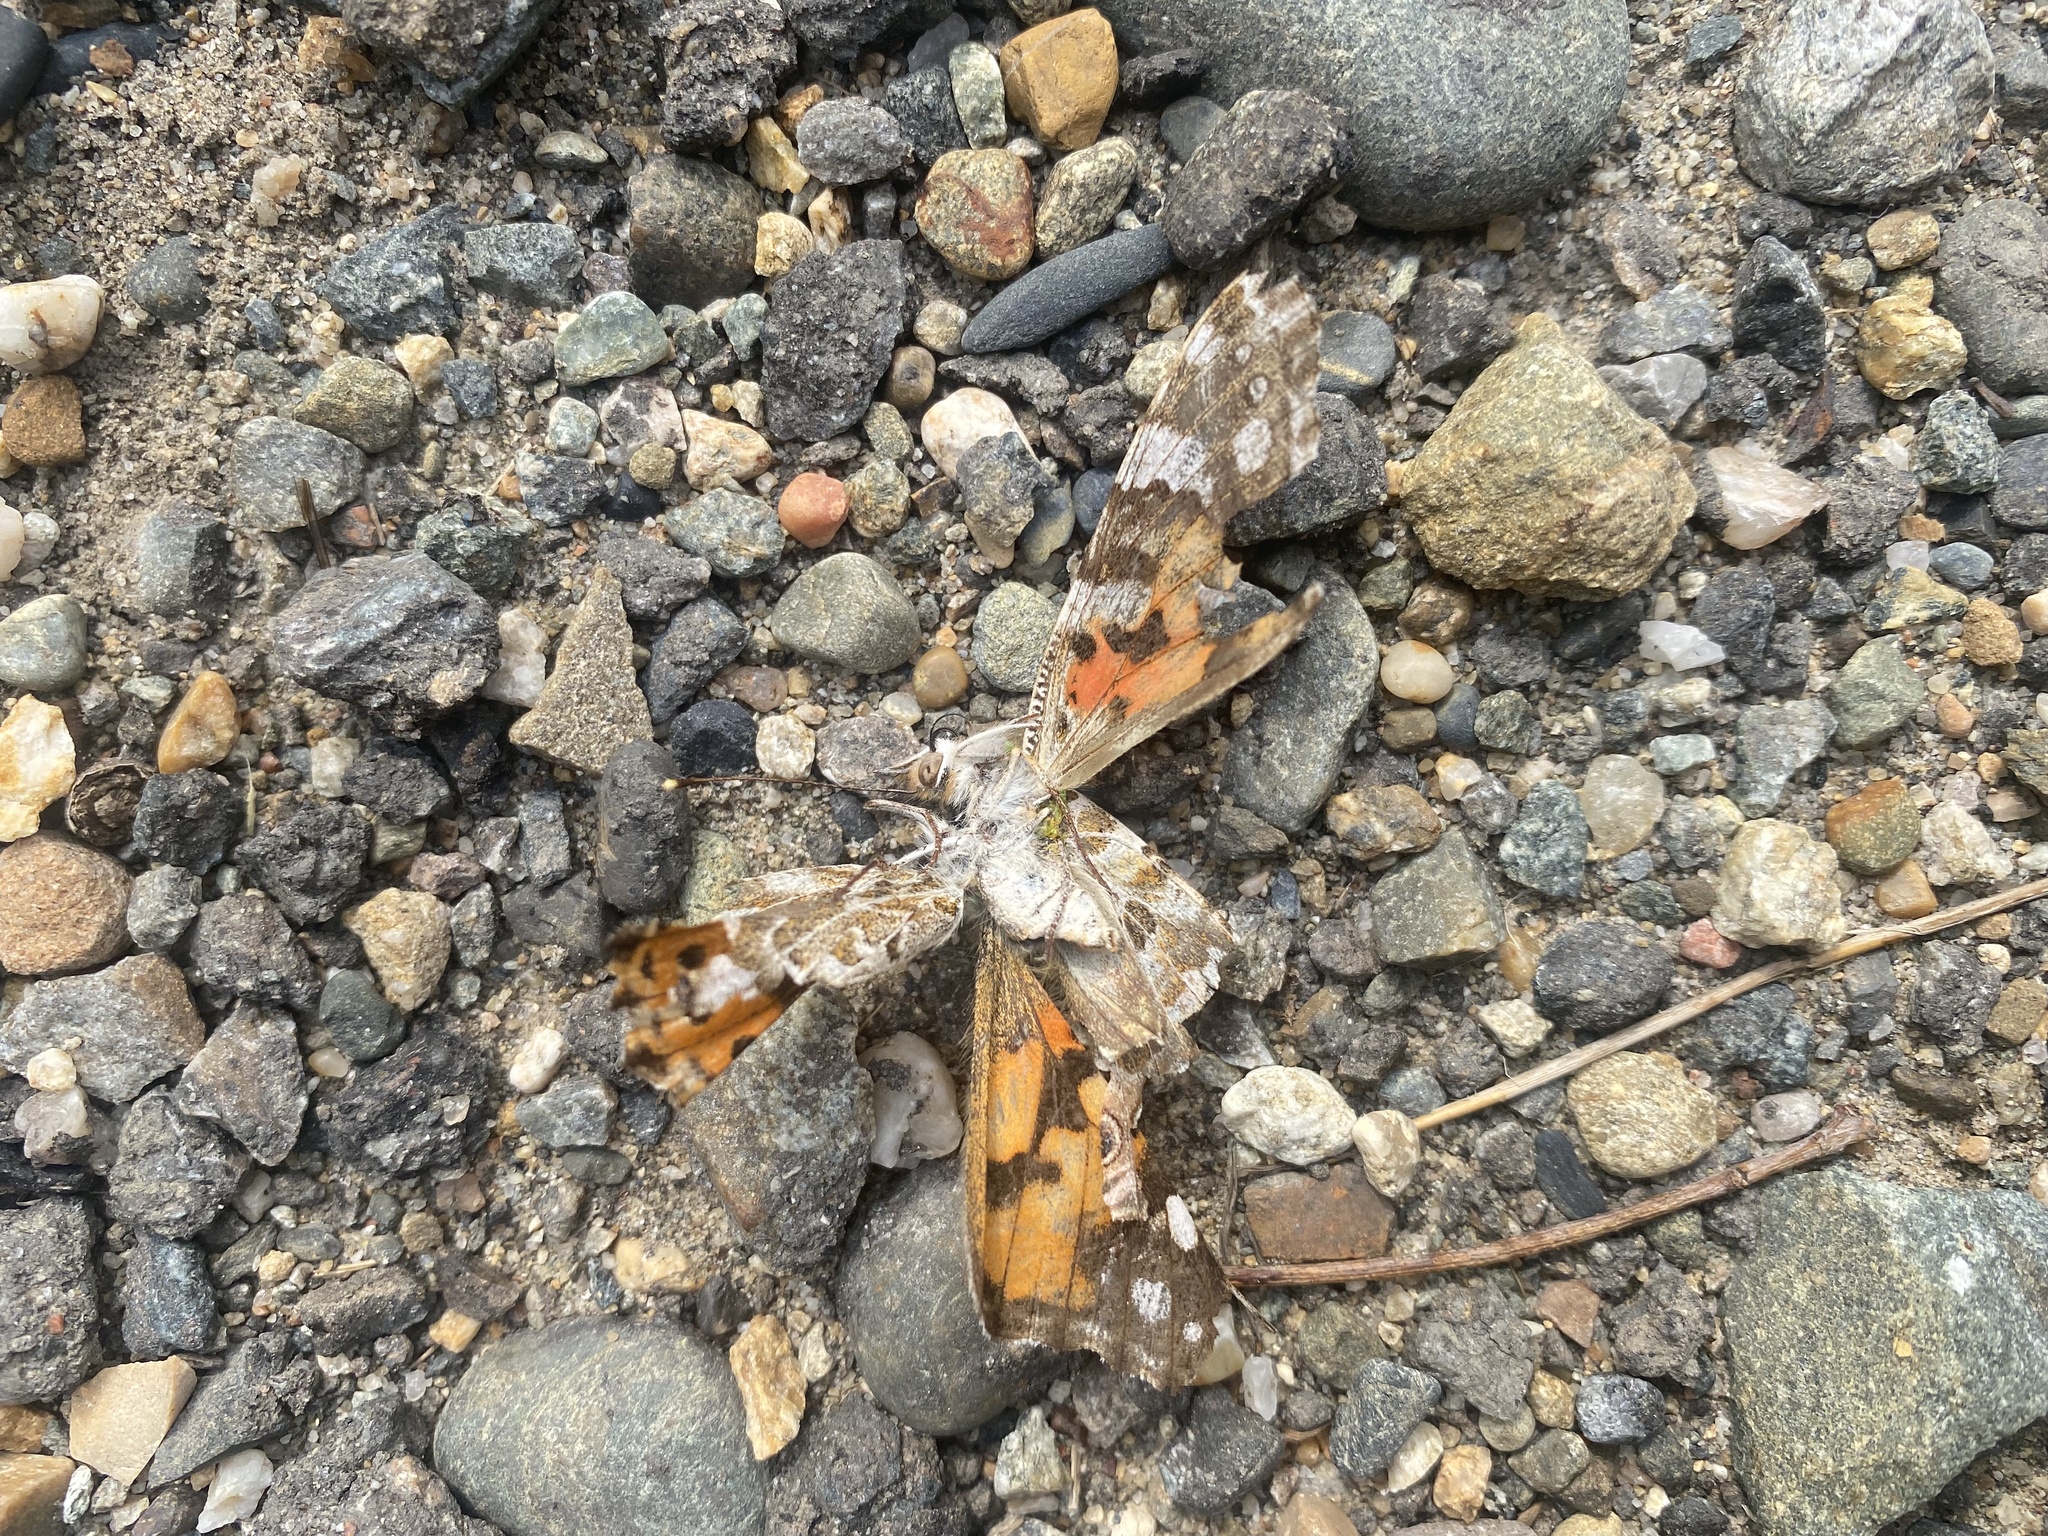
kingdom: Animalia
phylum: Arthropoda
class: Insecta
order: Lepidoptera
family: Nymphalidae
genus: Vanessa
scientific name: Vanessa cardui
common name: Painted lady
